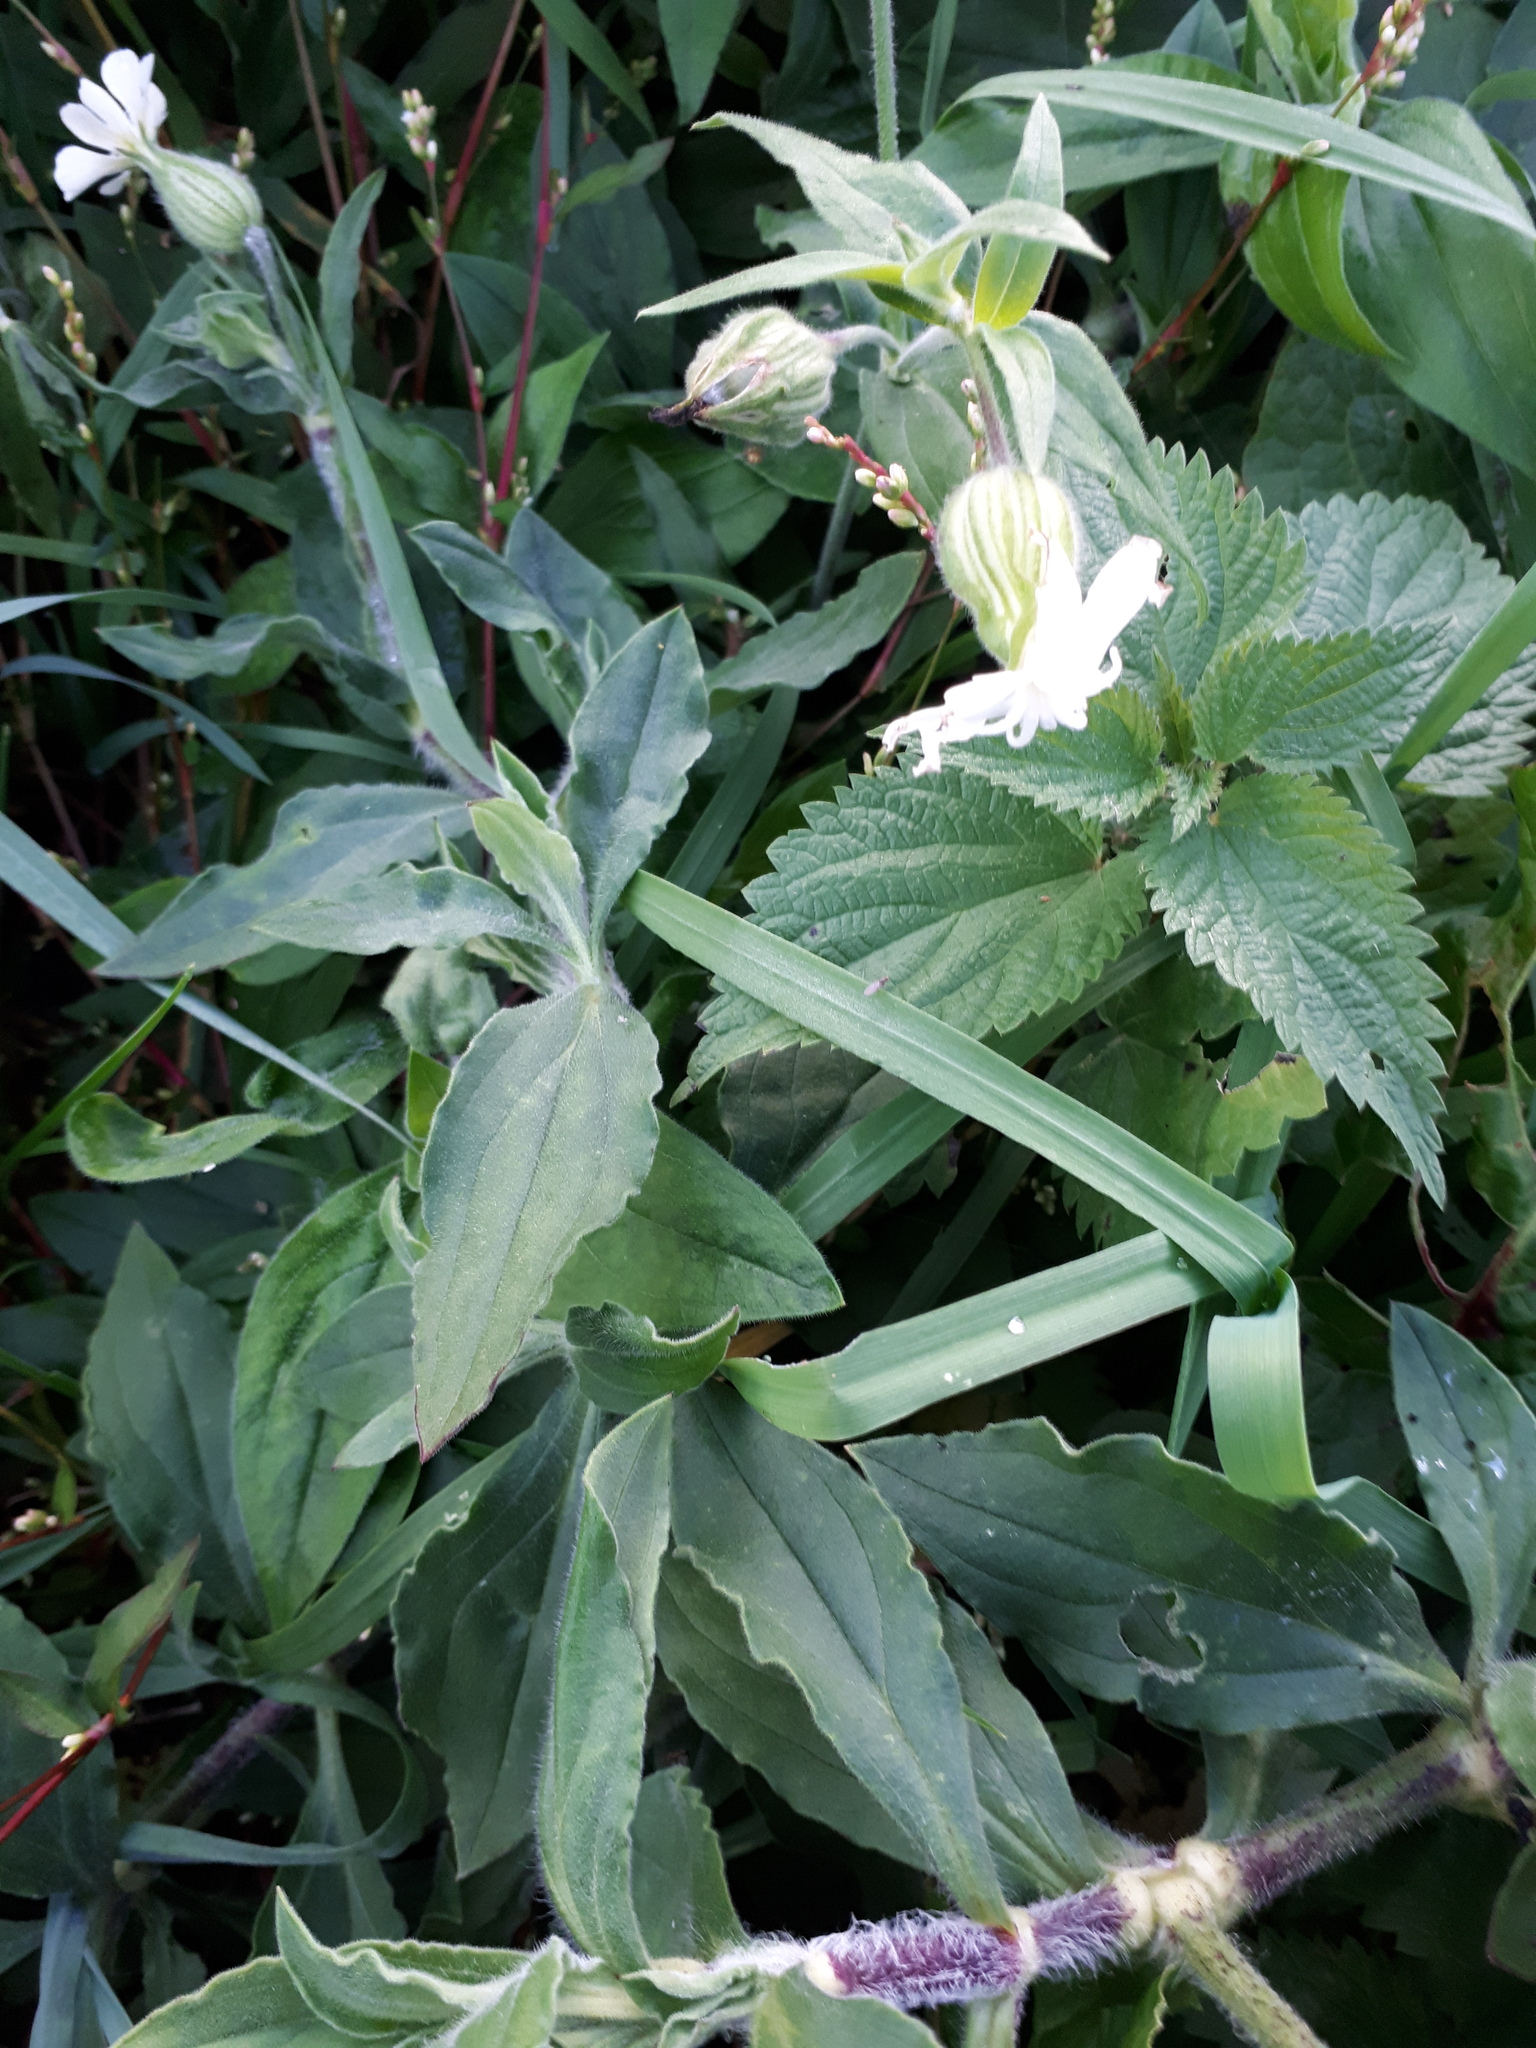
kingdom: Plantae
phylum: Tracheophyta
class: Magnoliopsida
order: Caryophyllales
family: Caryophyllaceae
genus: Silene
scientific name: Silene latifolia
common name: White campion
